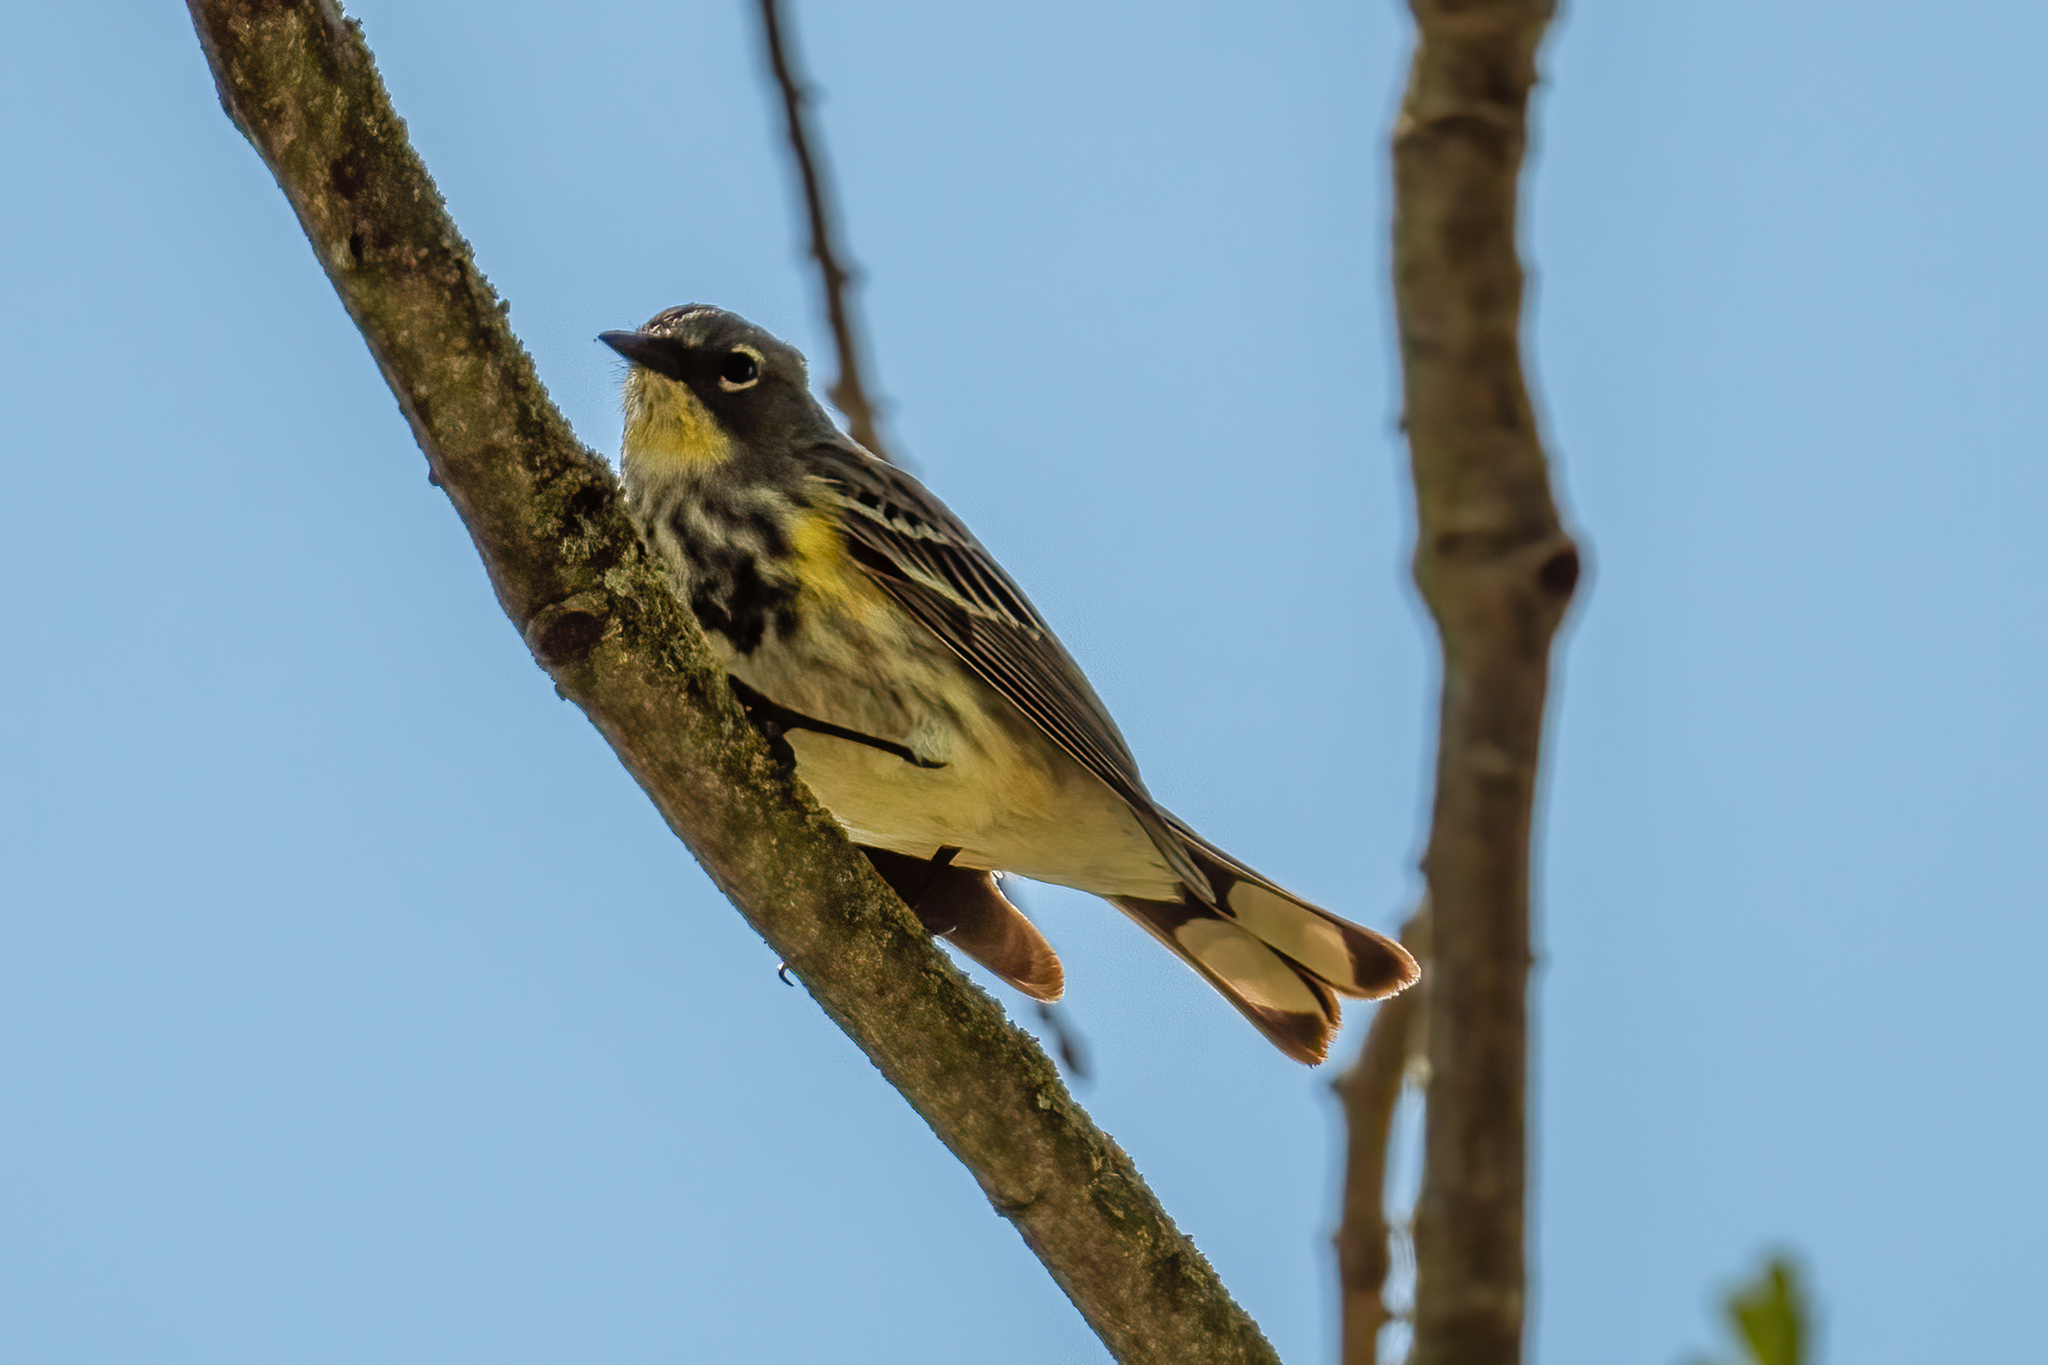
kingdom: Animalia
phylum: Chordata
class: Aves
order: Passeriformes
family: Parulidae
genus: Setophaga
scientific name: Setophaga coronata
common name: Myrtle warbler
